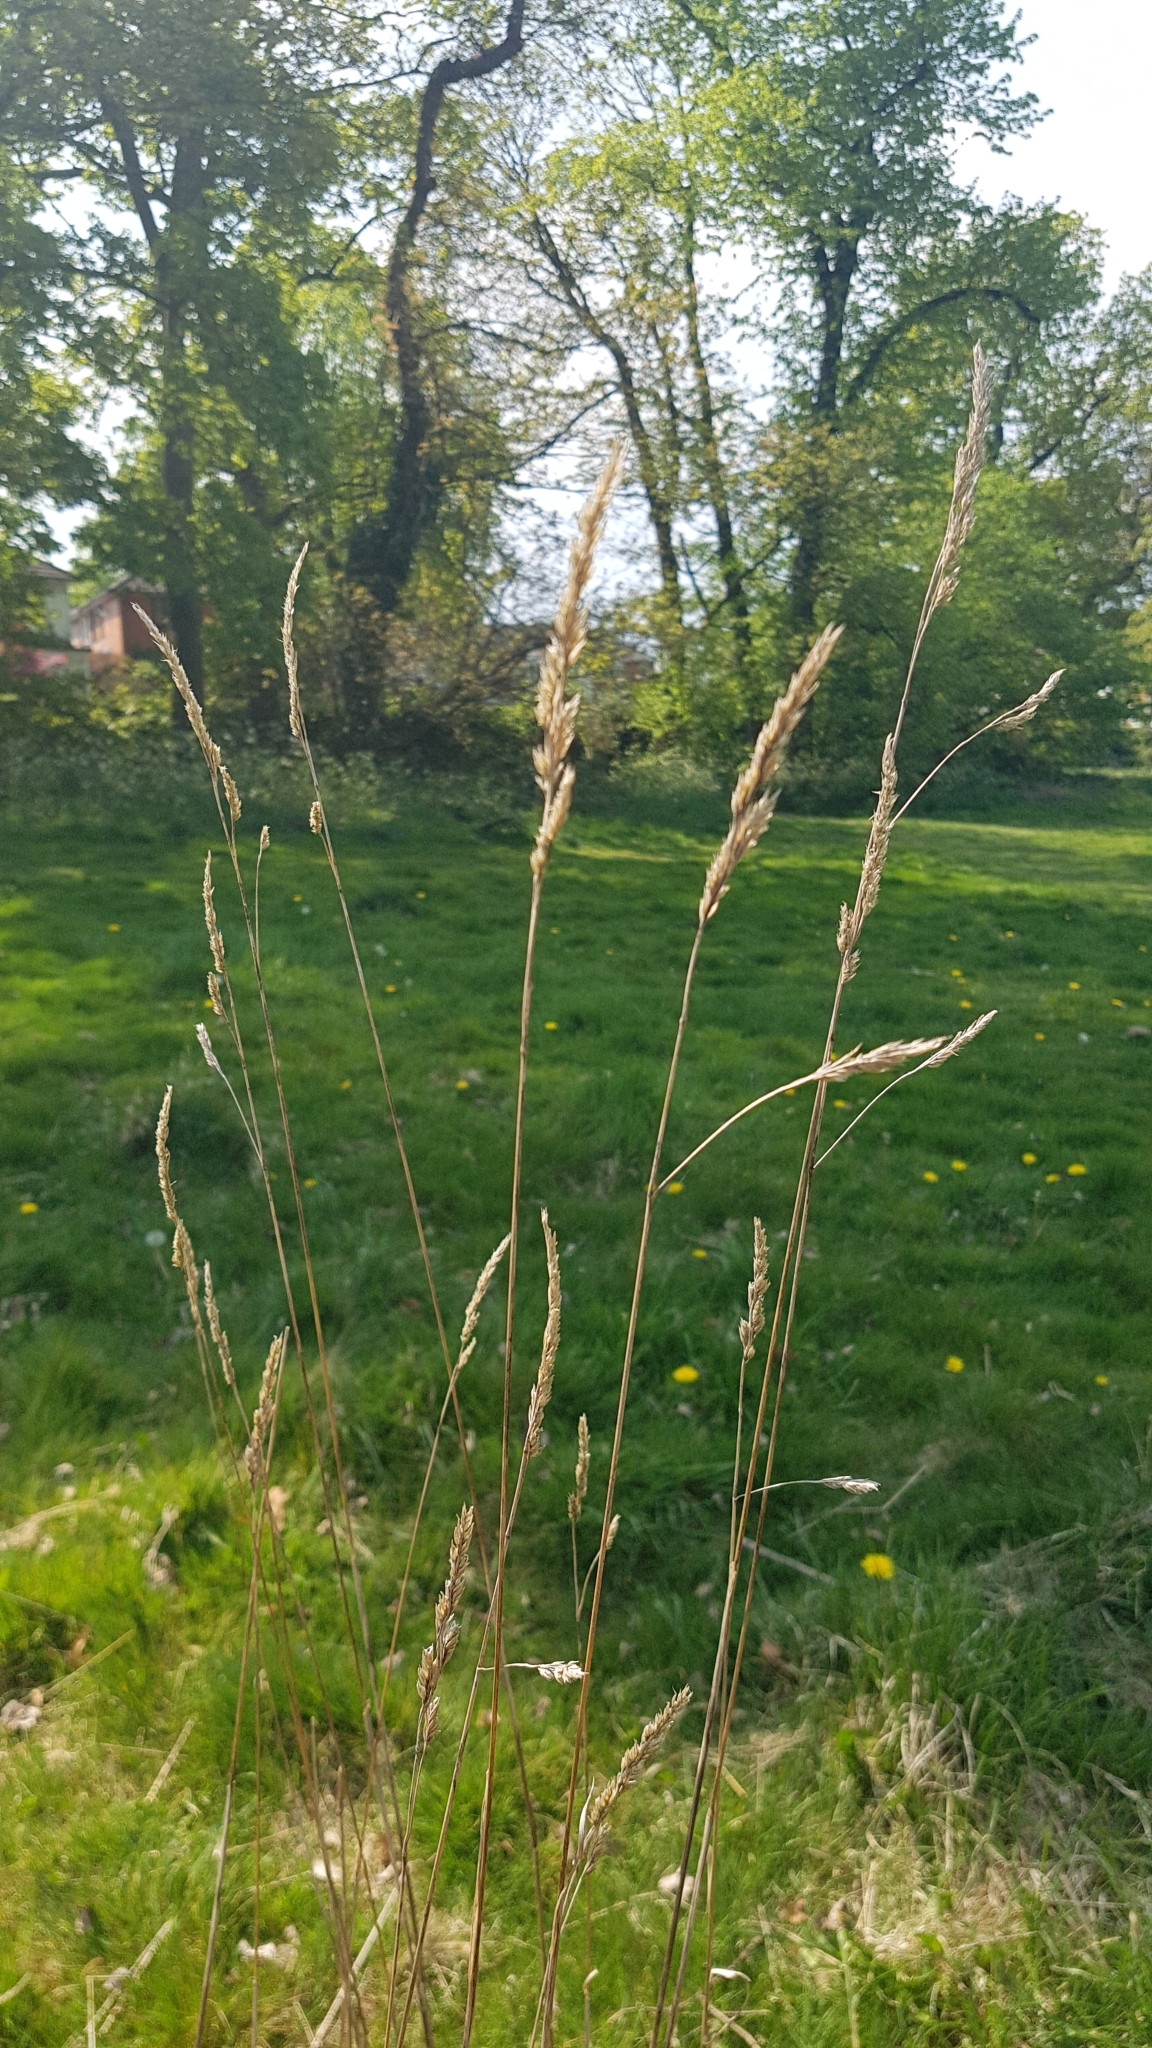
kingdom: Plantae
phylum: Tracheophyta
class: Liliopsida
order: Poales
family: Poaceae
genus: Dactylis
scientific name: Dactylis glomerata
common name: Orchardgrass
